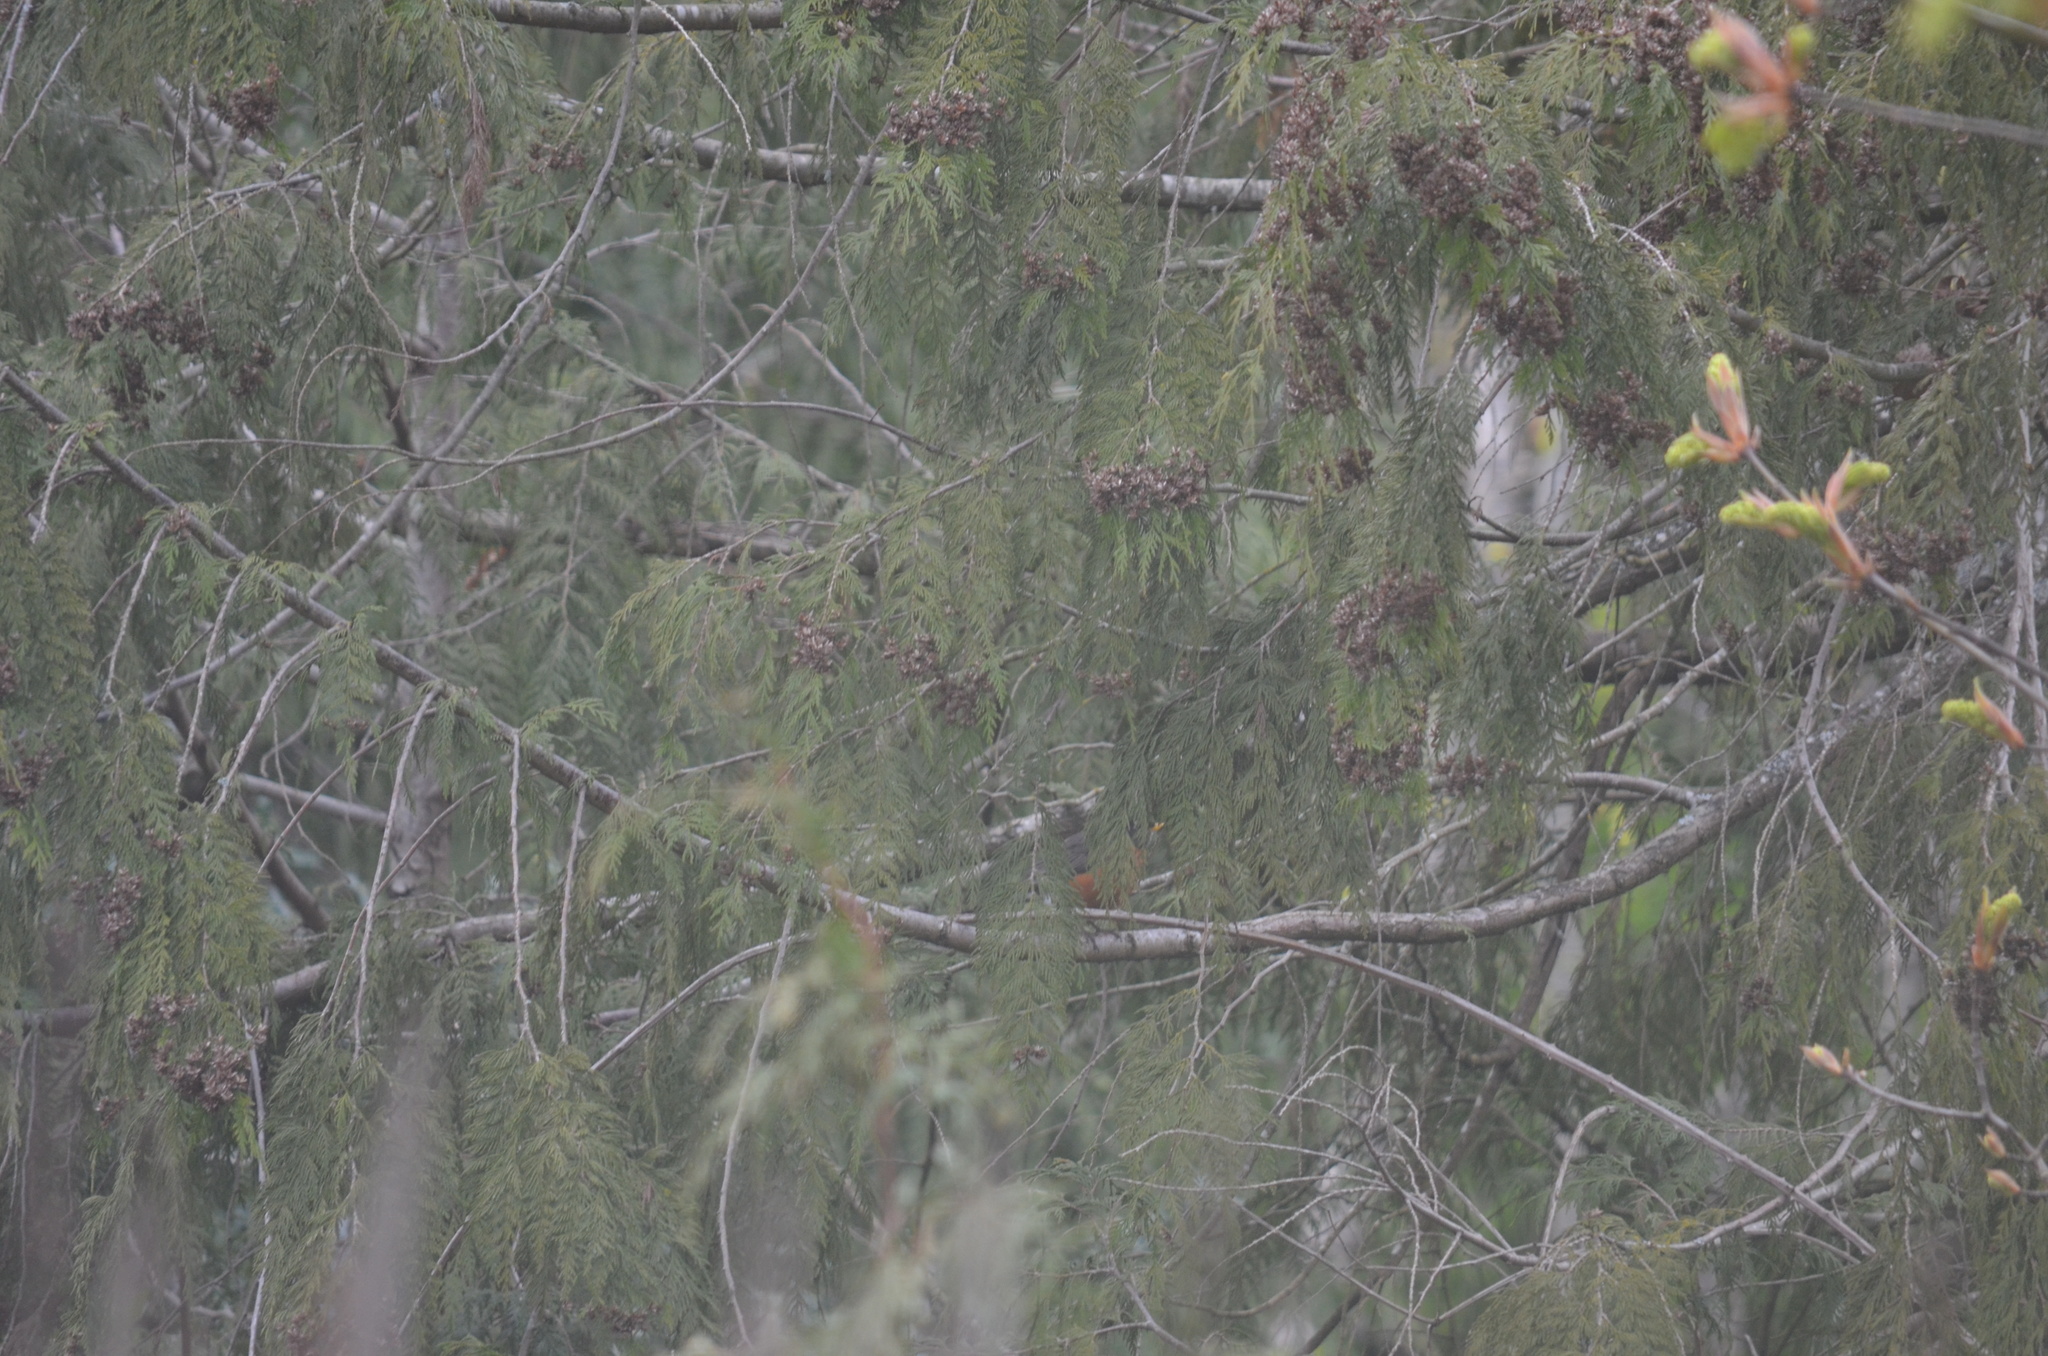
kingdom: Animalia
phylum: Chordata
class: Aves
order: Passeriformes
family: Turdidae
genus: Turdus
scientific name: Turdus migratorius
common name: American robin
